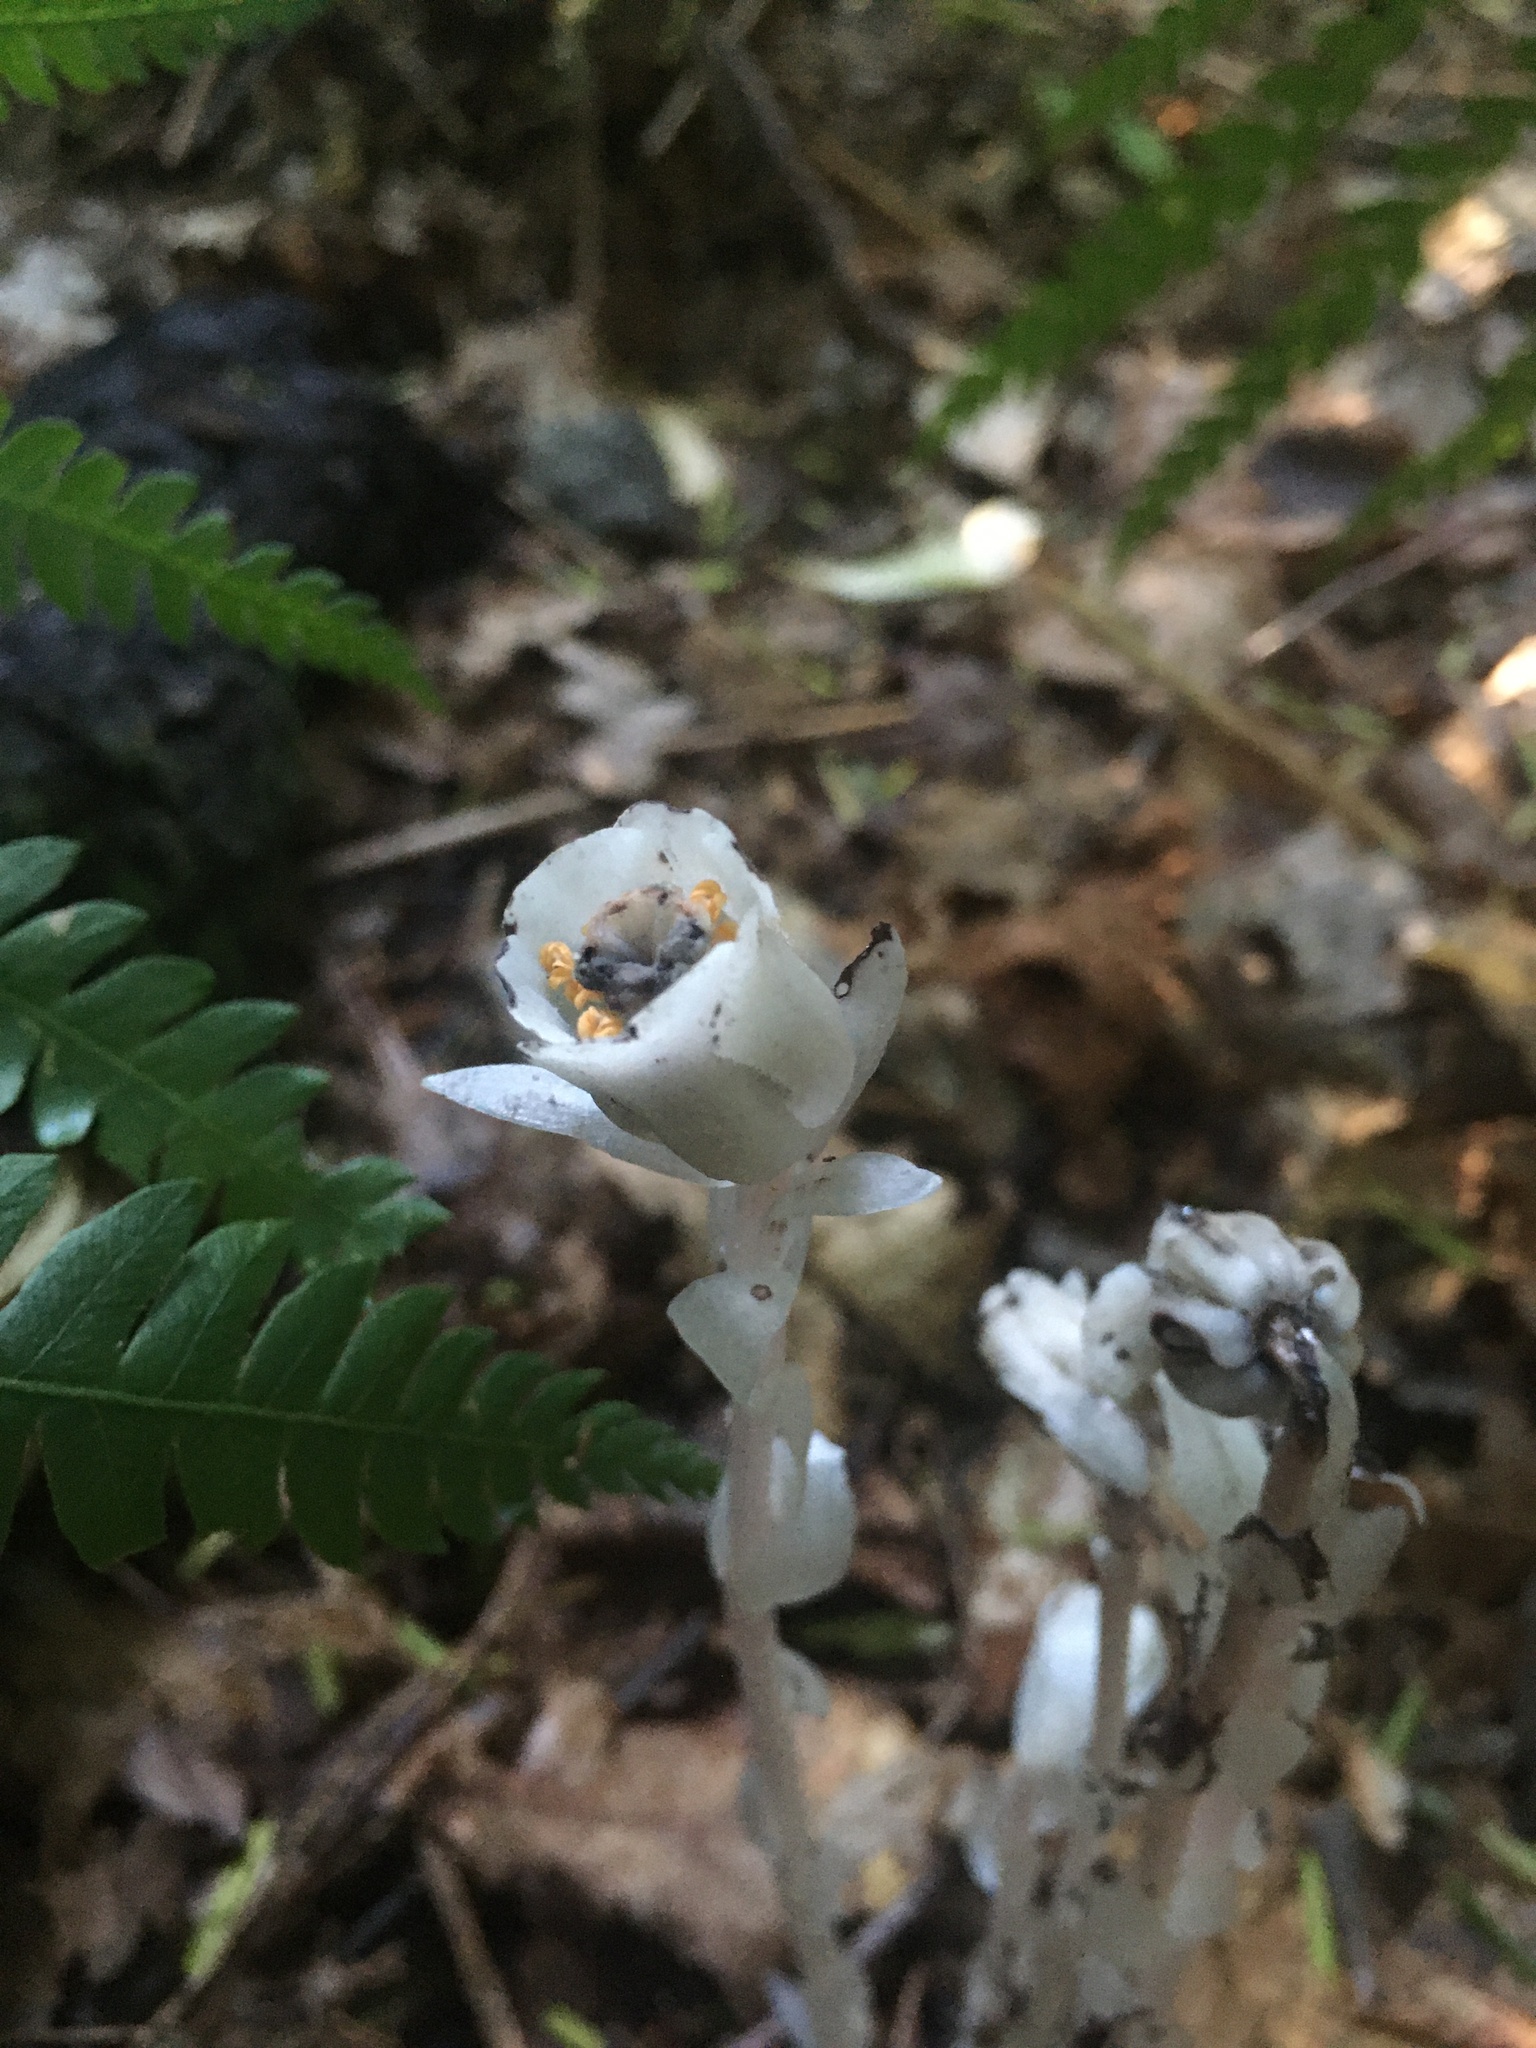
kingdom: Plantae
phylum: Tracheophyta
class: Magnoliopsida
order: Ericales
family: Ericaceae
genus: Monotropa
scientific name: Monotropa uniflora
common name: Convulsion root
